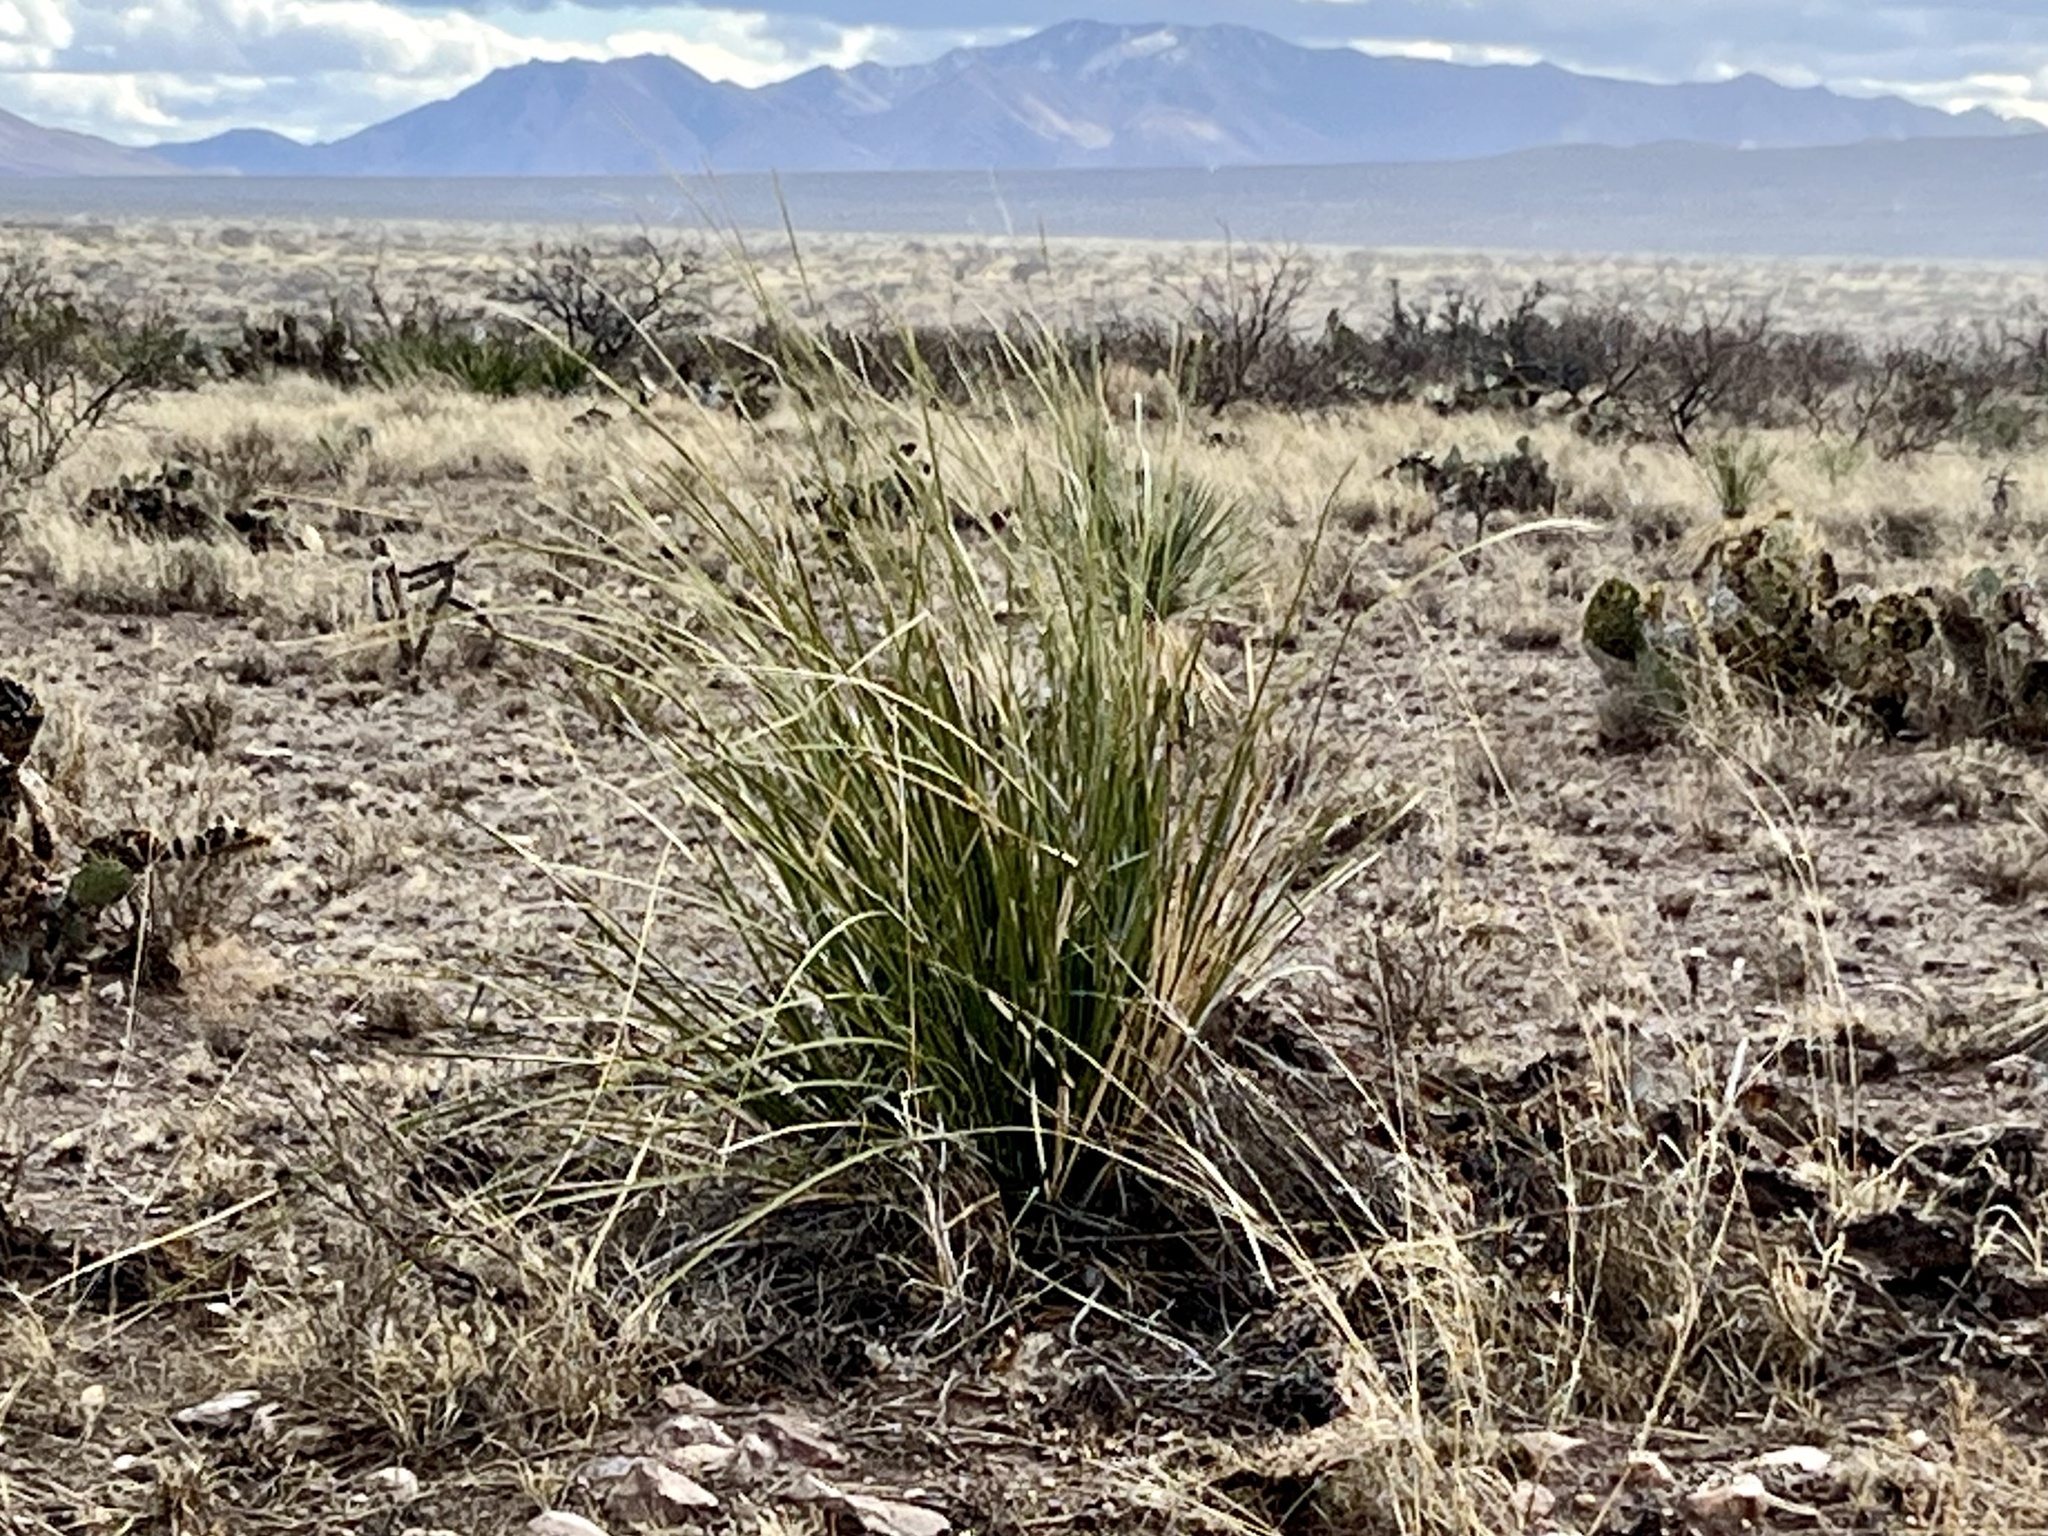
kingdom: Plantae
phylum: Tracheophyta
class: Liliopsida
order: Asparagales
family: Asparagaceae
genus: Nolina
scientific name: Nolina microcarpa
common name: Bear-grass
